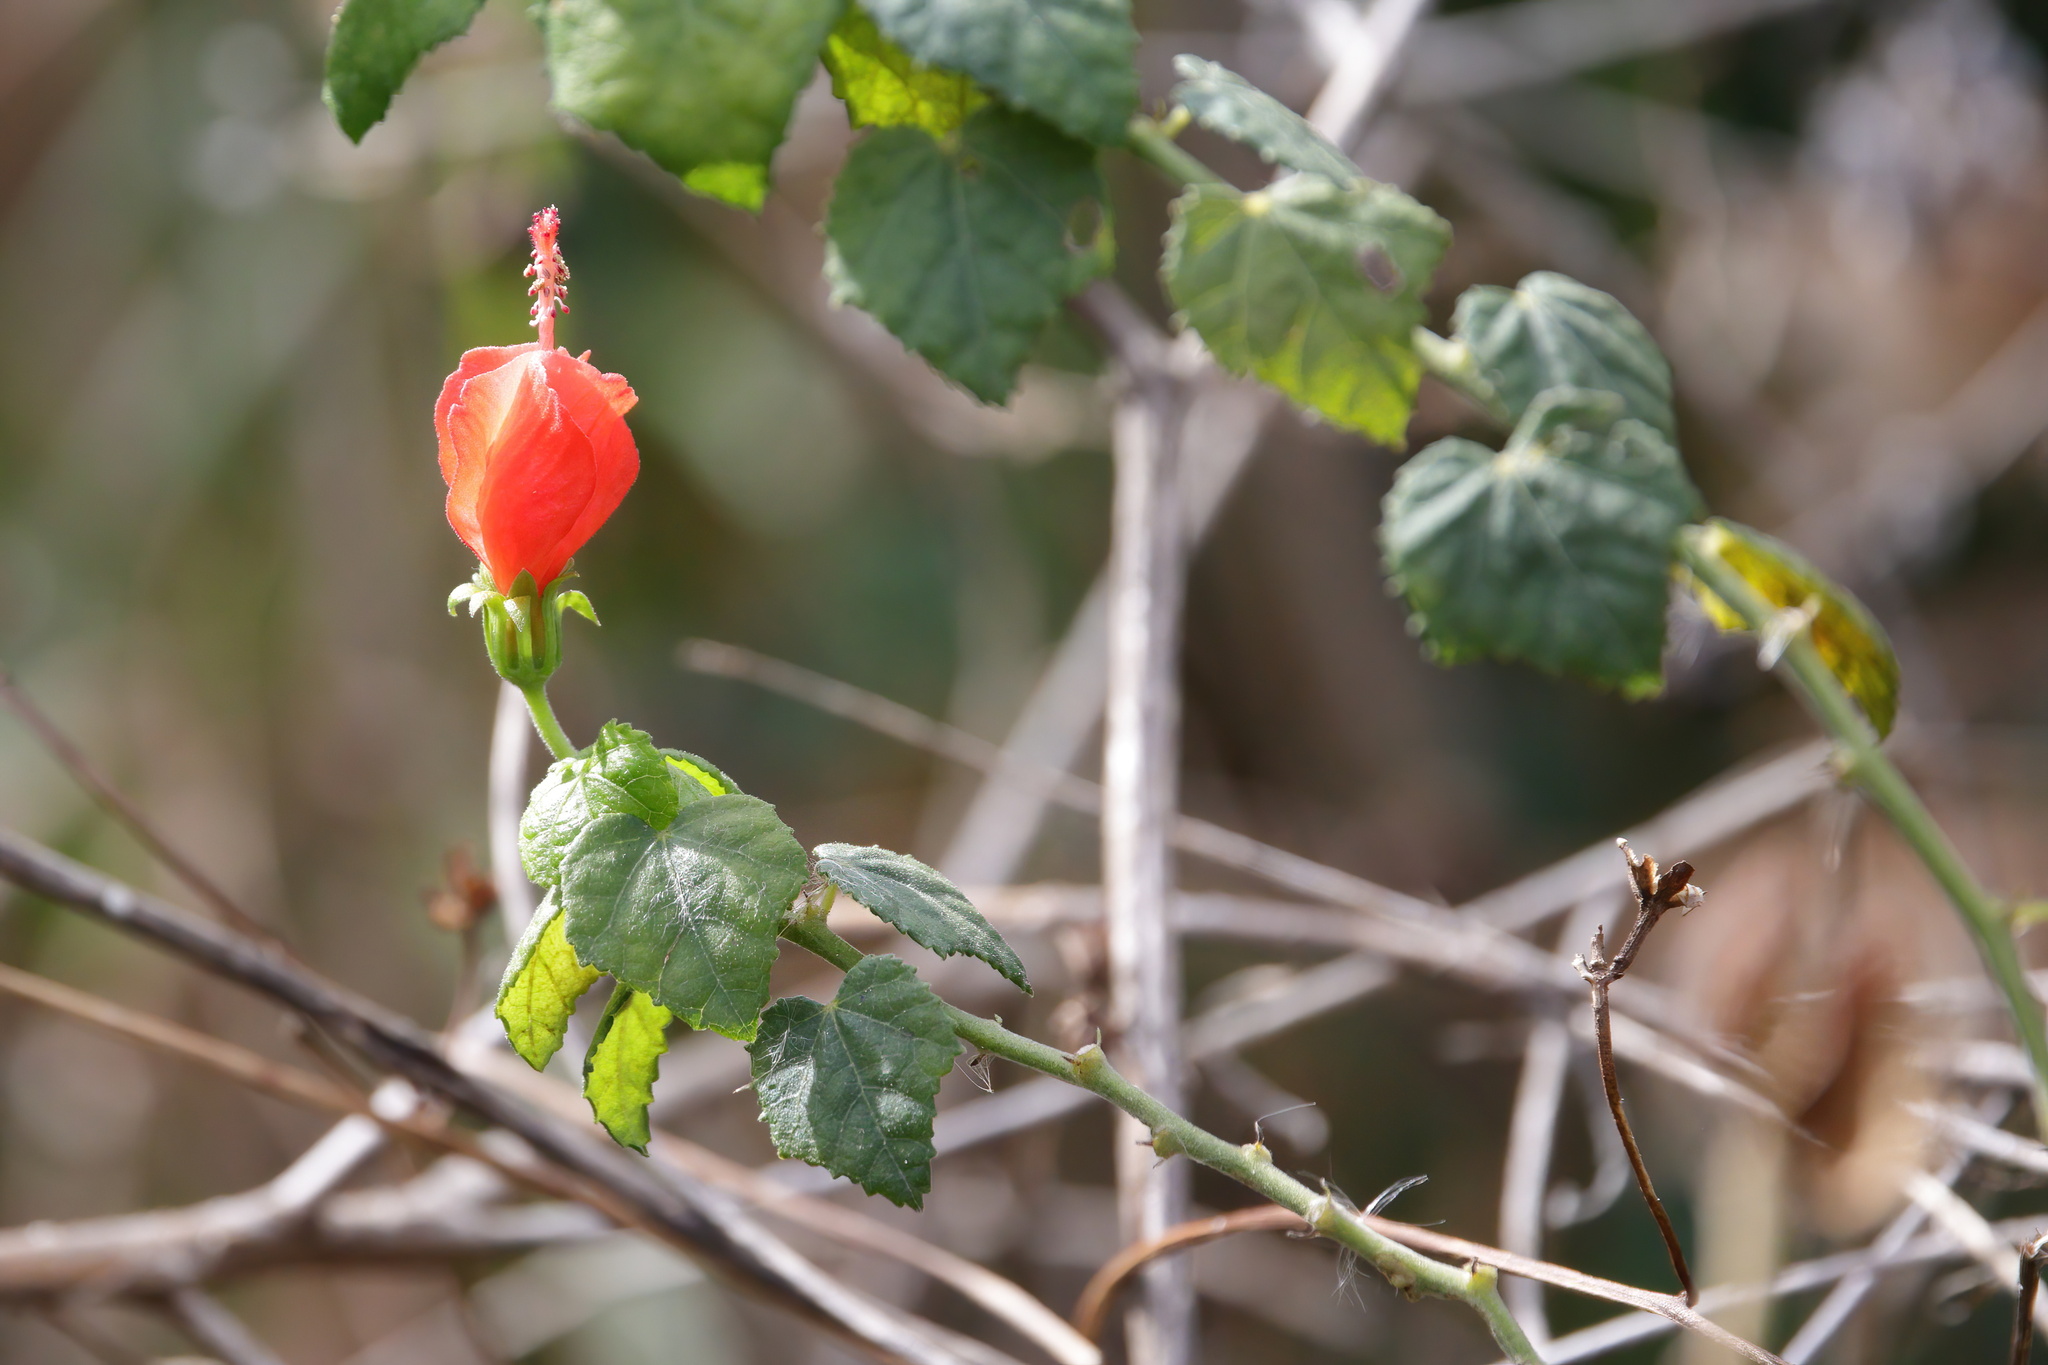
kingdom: Plantae
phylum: Tracheophyta
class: Magnoliopsida
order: Malvales
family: Malvaceae
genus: Malvaviscus
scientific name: Malvaviscus arboreus
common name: Wax mallow
